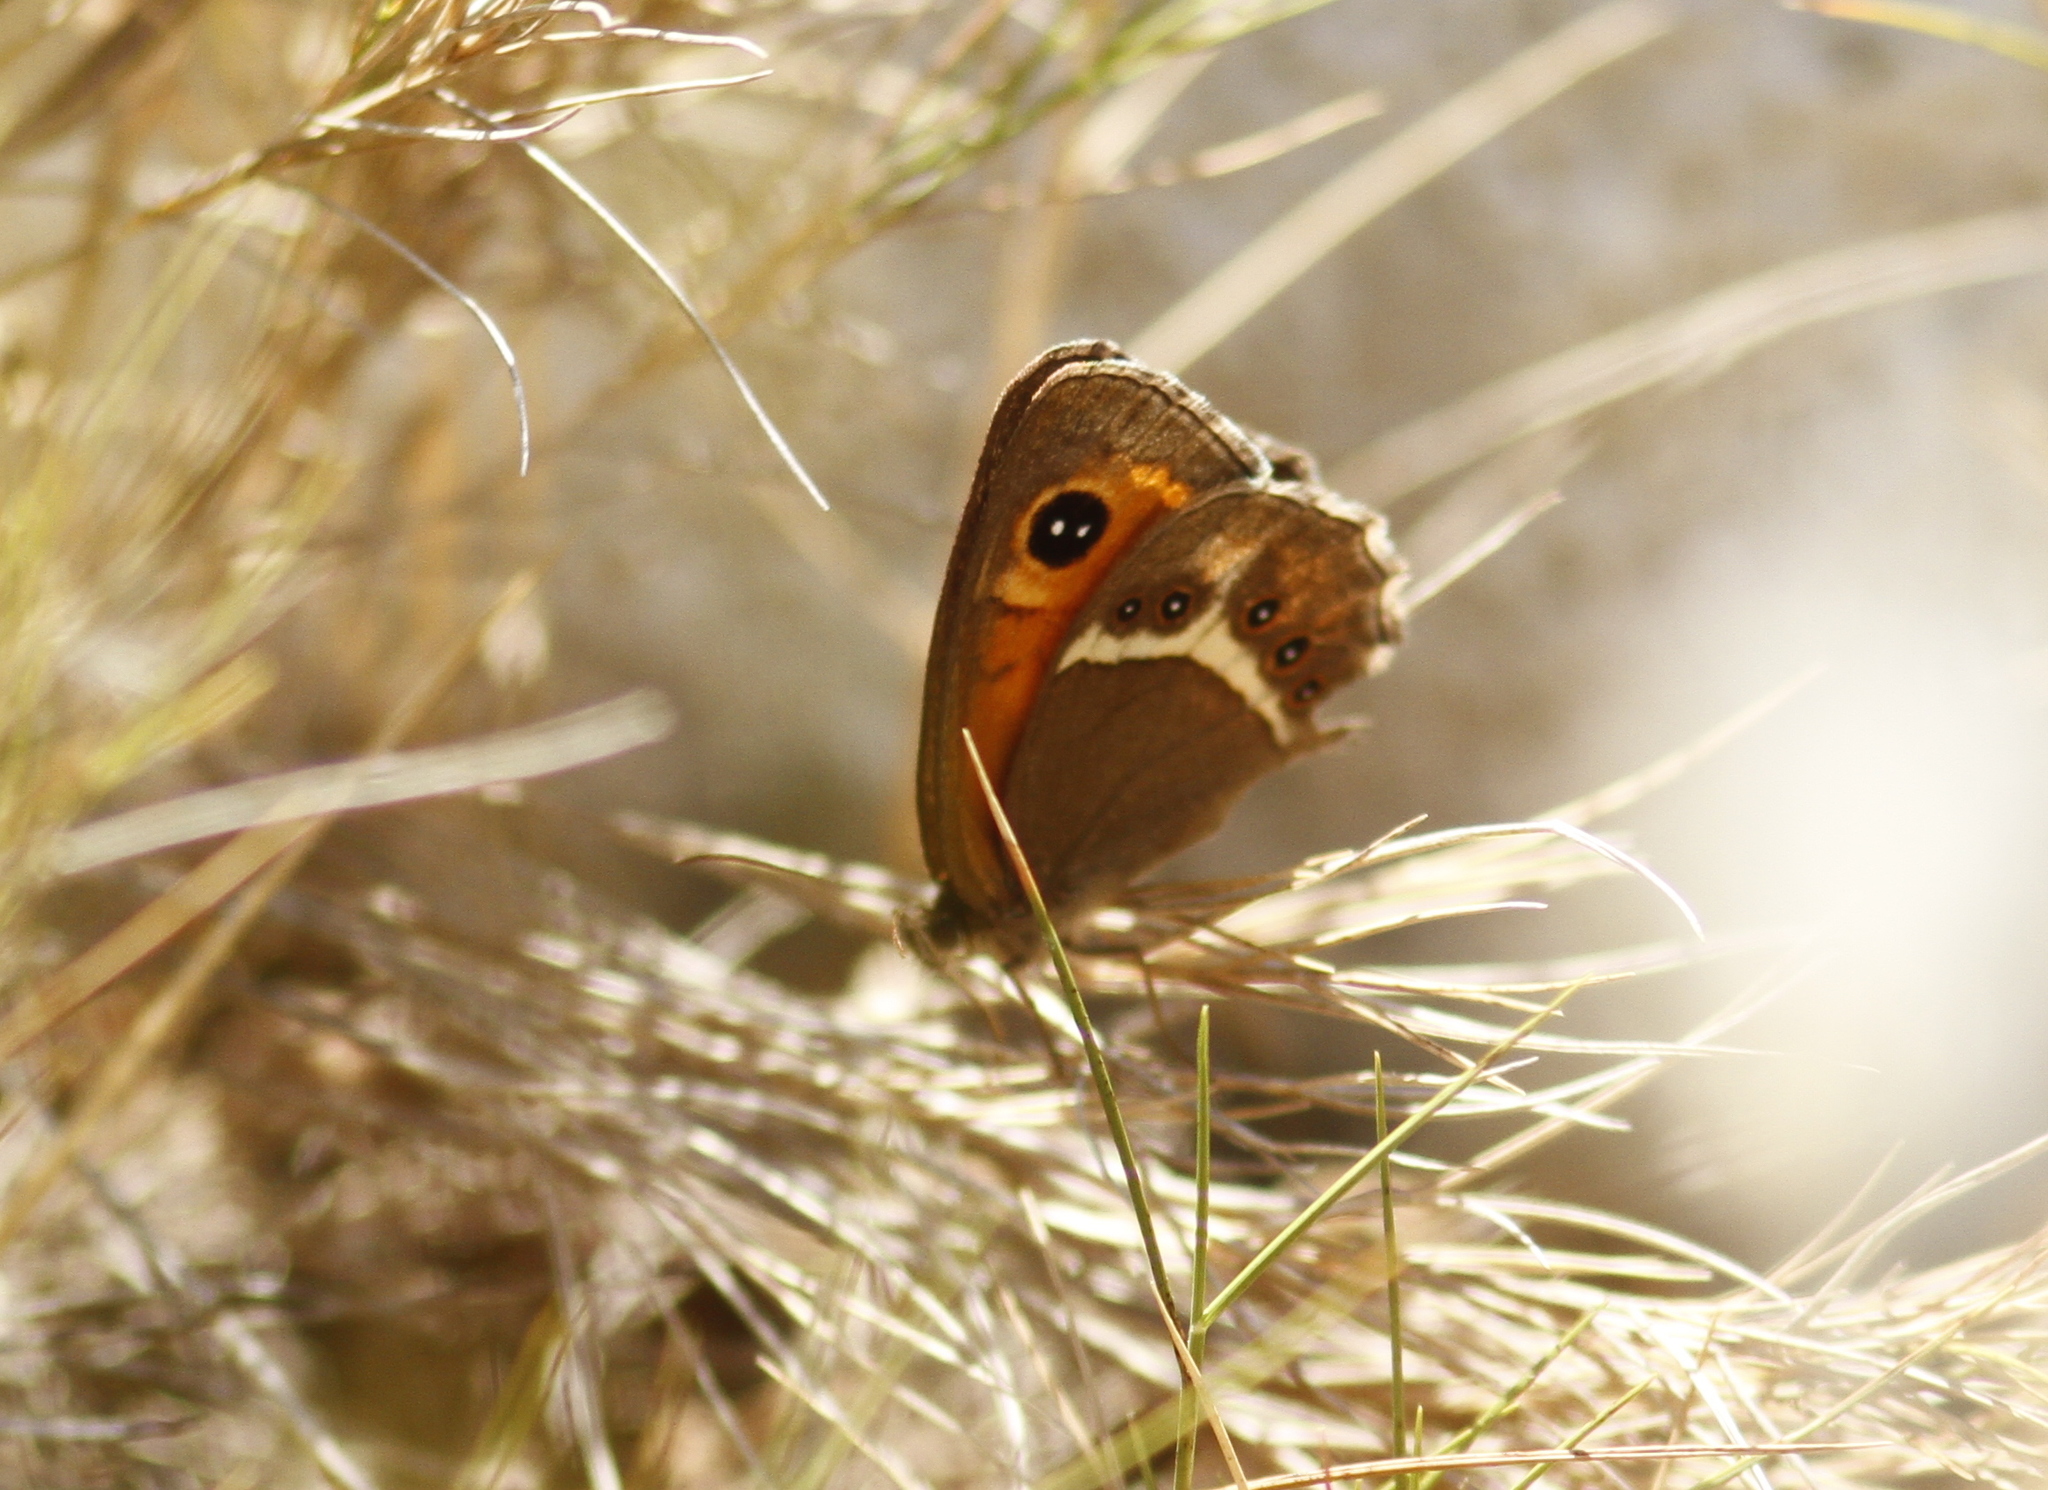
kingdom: Animalia
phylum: Arthropoda
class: Insecta
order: Lepidoptera
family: Nymphalidae
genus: Pyronia
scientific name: Pyronia bathseba
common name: Spanish gatekeeper
